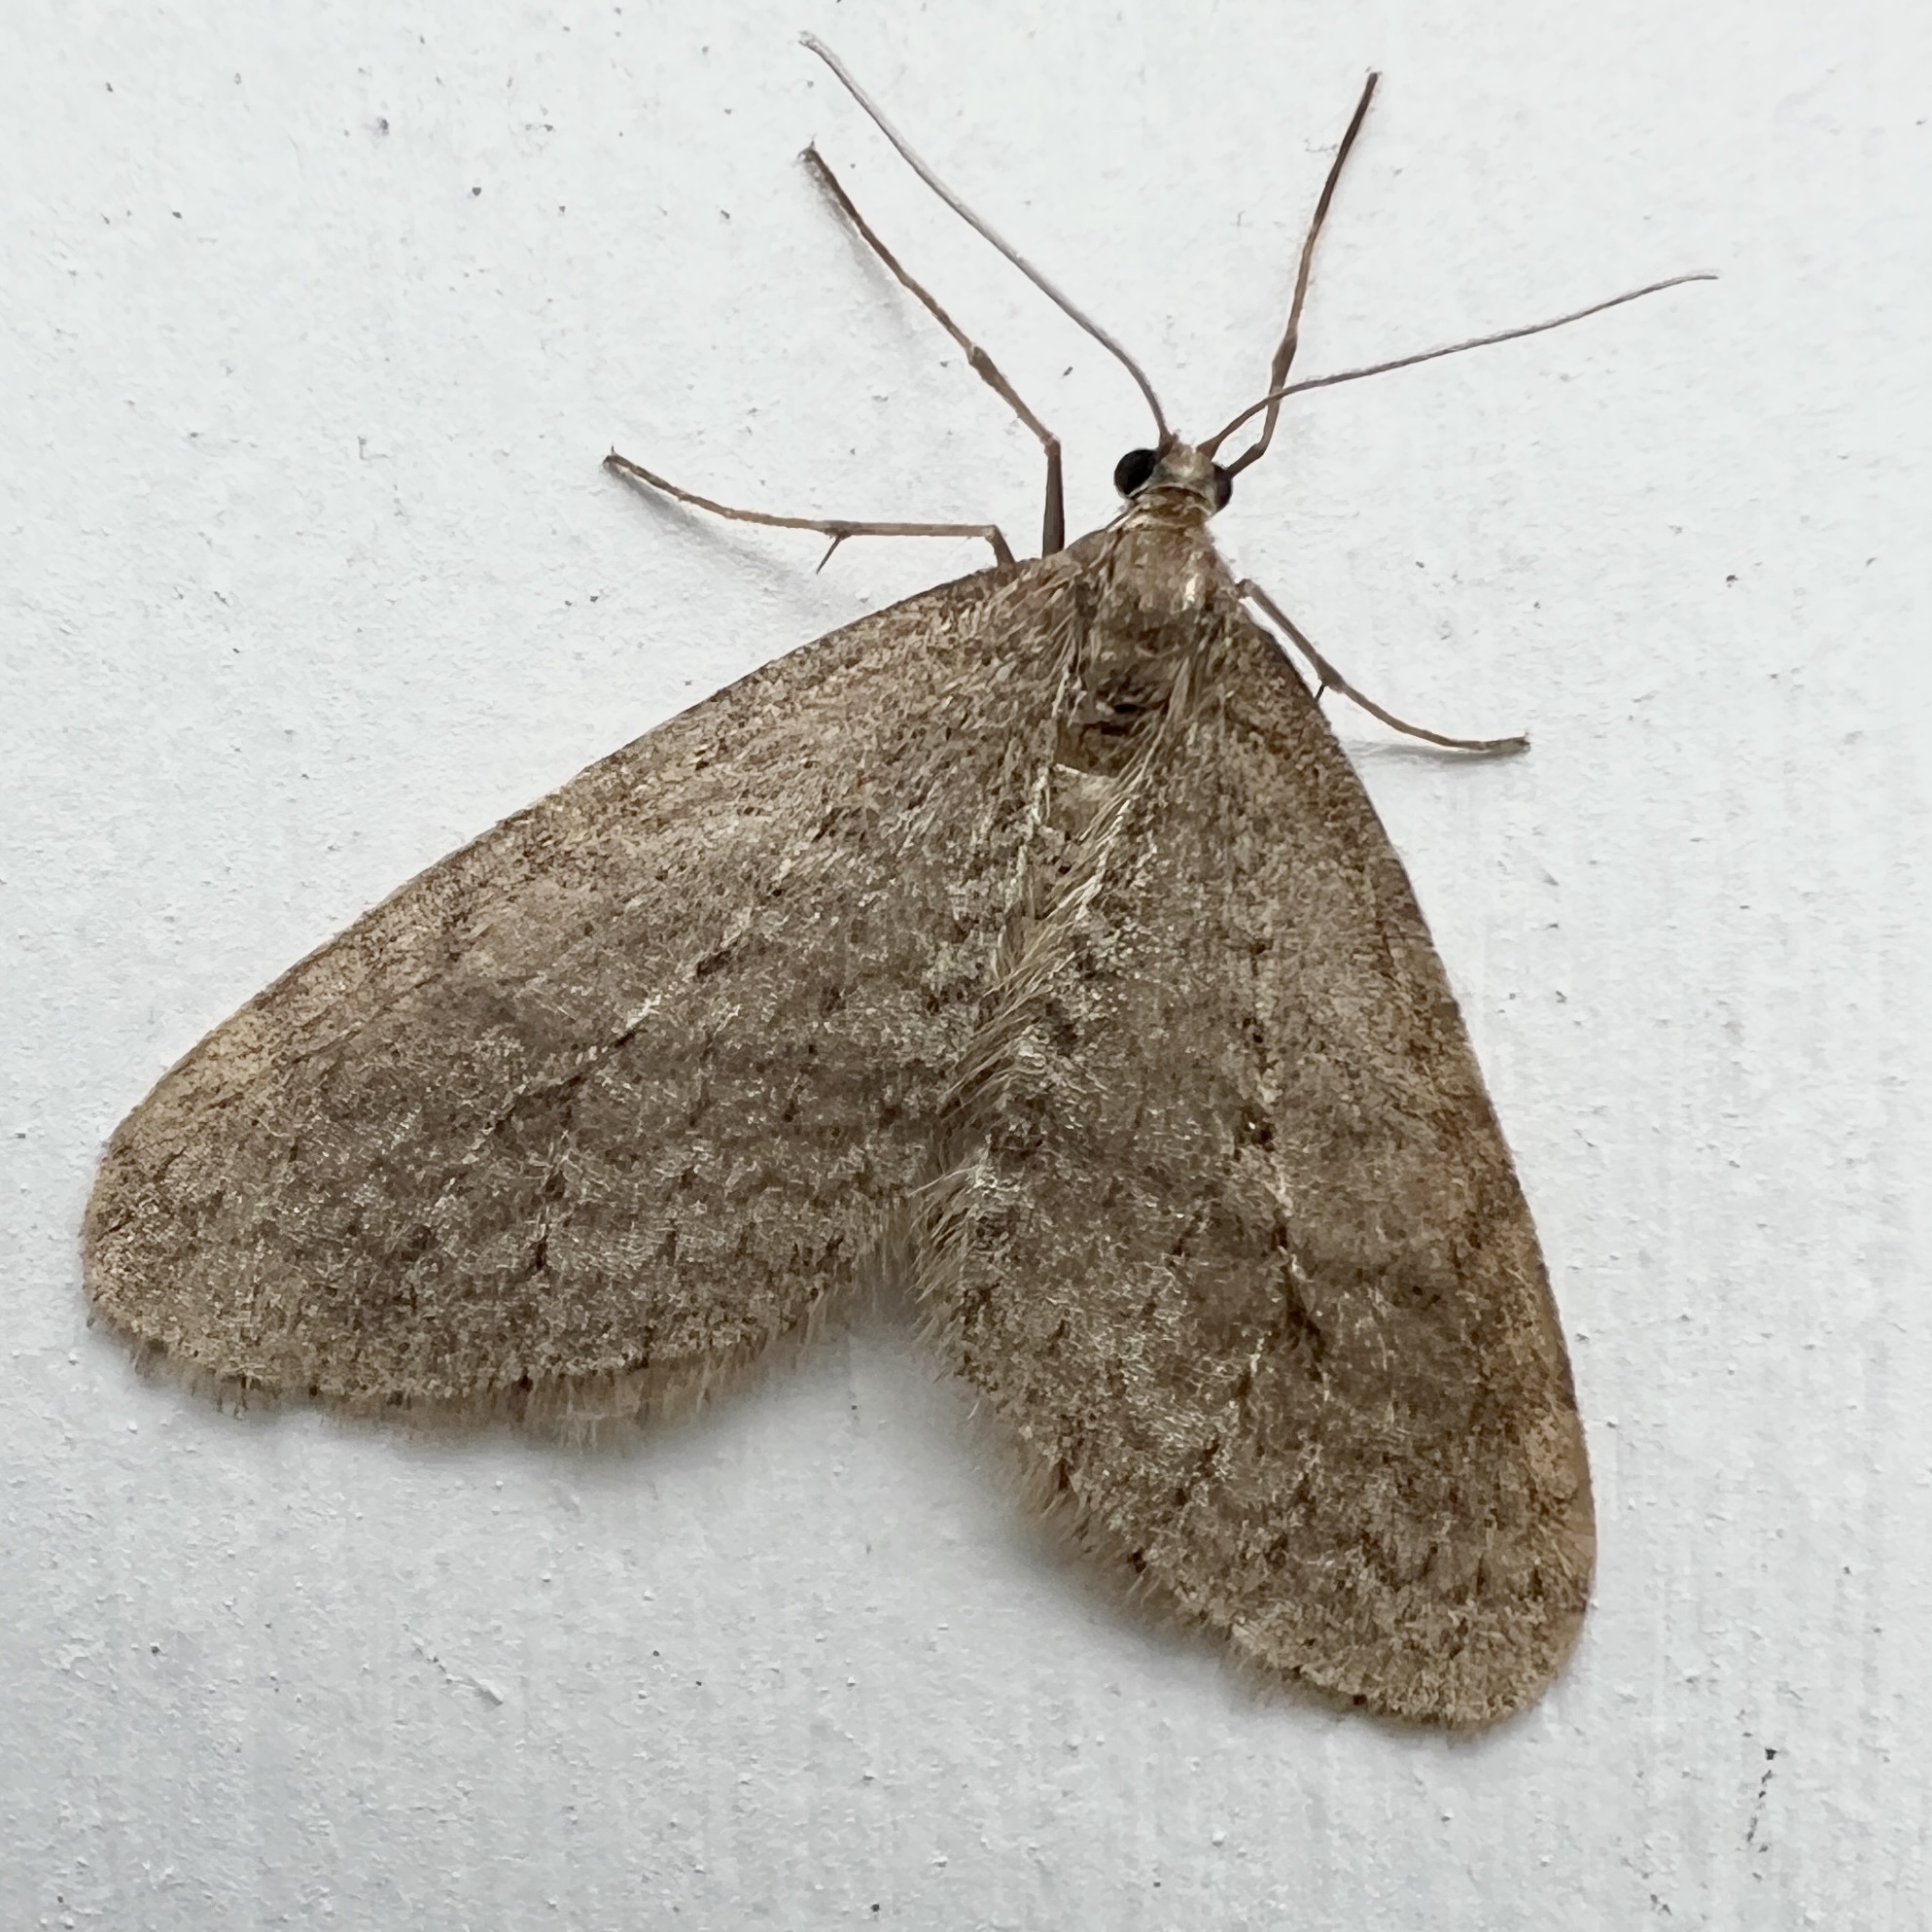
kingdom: Animalia
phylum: Arthropoda
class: Insecta
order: Lepidoptera
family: Geometridae
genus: Operophtera
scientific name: Operophtera bruceata
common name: Bruce spanworm
